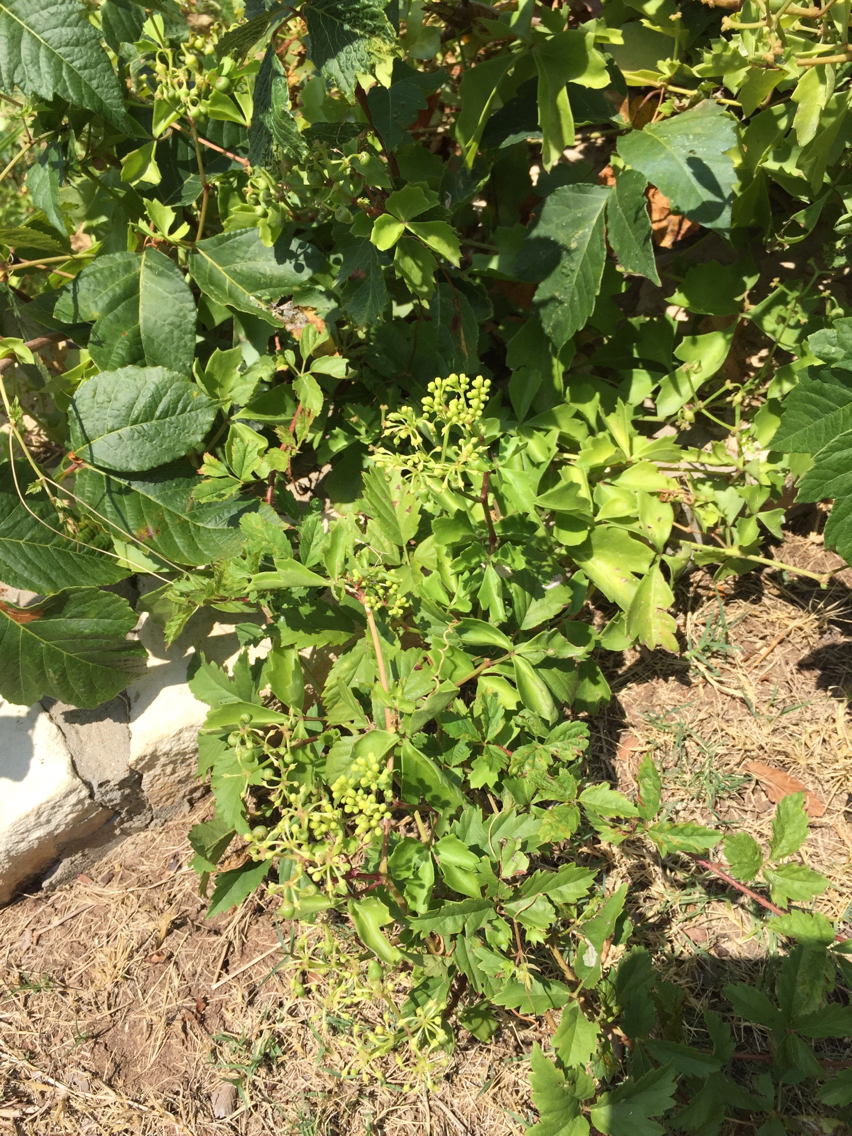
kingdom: Plantae
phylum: Tracheophyta
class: Magnoliopsida
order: Vitales
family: Vitaceae
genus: Cissus
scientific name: Cissus trifoliata
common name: Vine-sorrel
